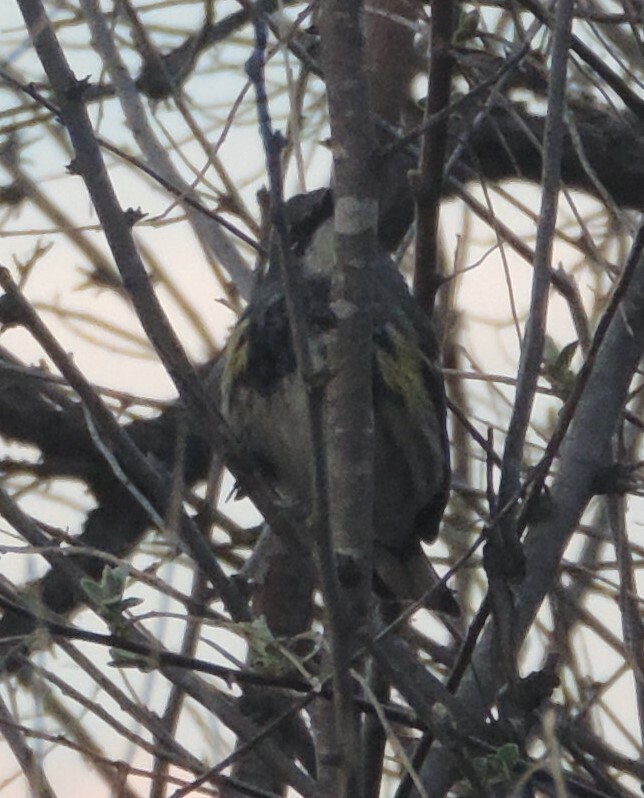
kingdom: Animalia
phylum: Chordata
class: Aves
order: Passeriformes
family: Parulidae
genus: Setophaga
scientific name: Setophaga coronata
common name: Myrtle warbler
